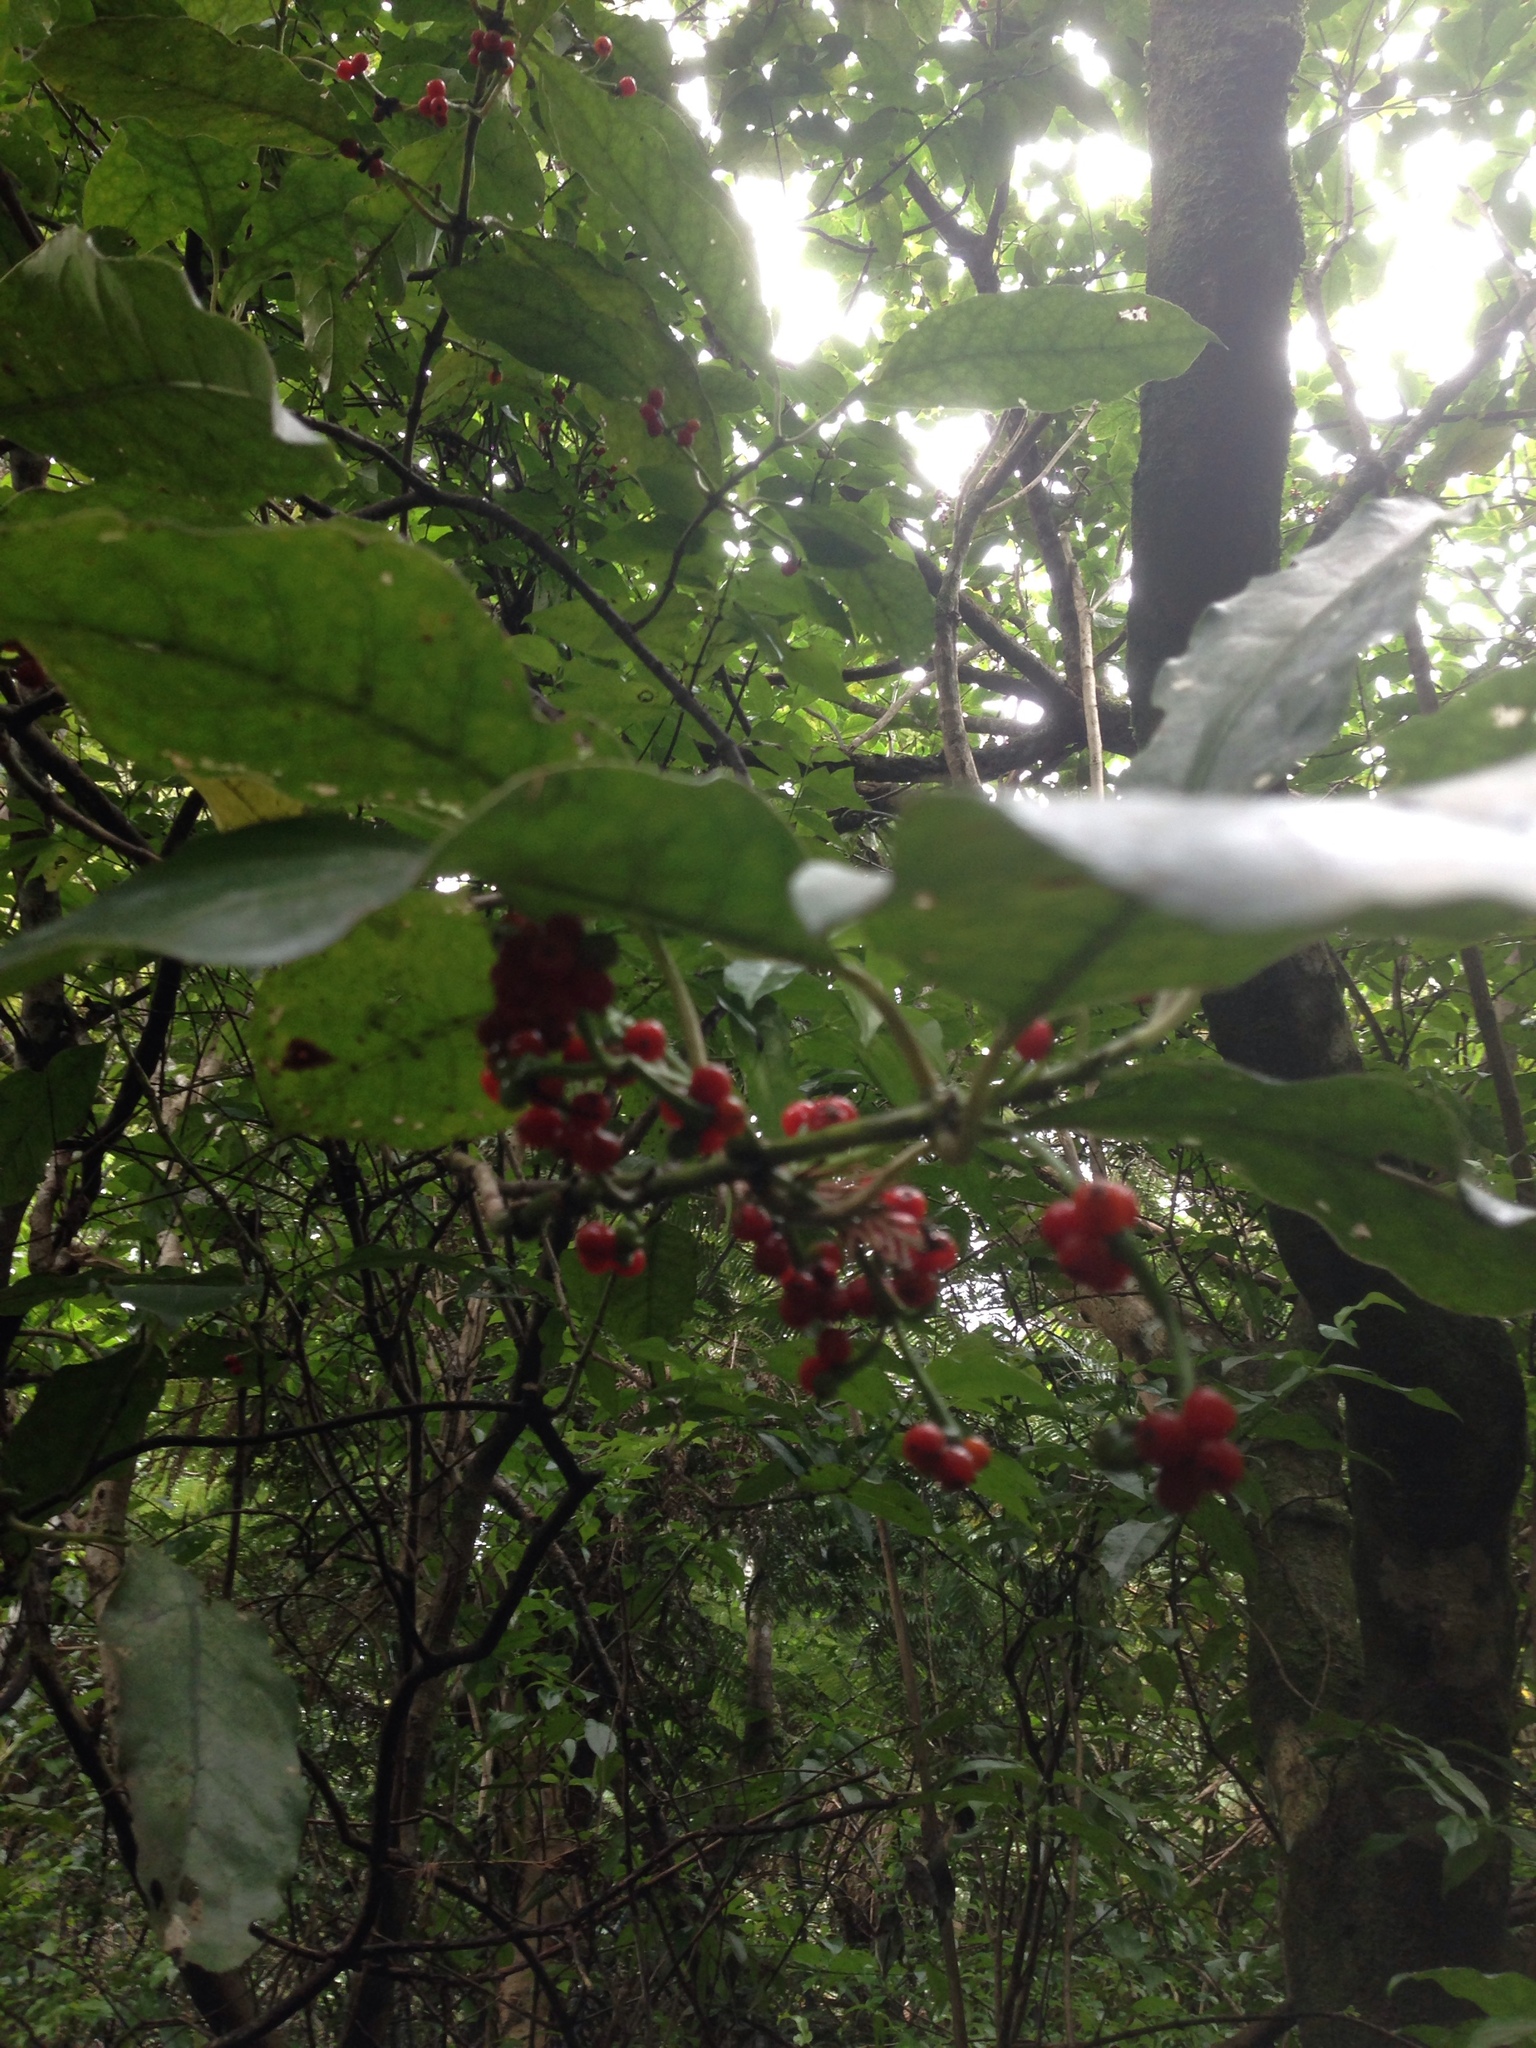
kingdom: Plantae
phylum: Tracheophyta
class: Magnoliopsida
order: Gentianales
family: Rubiaceae
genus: Coprosma
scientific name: Coprosma autumnalis
